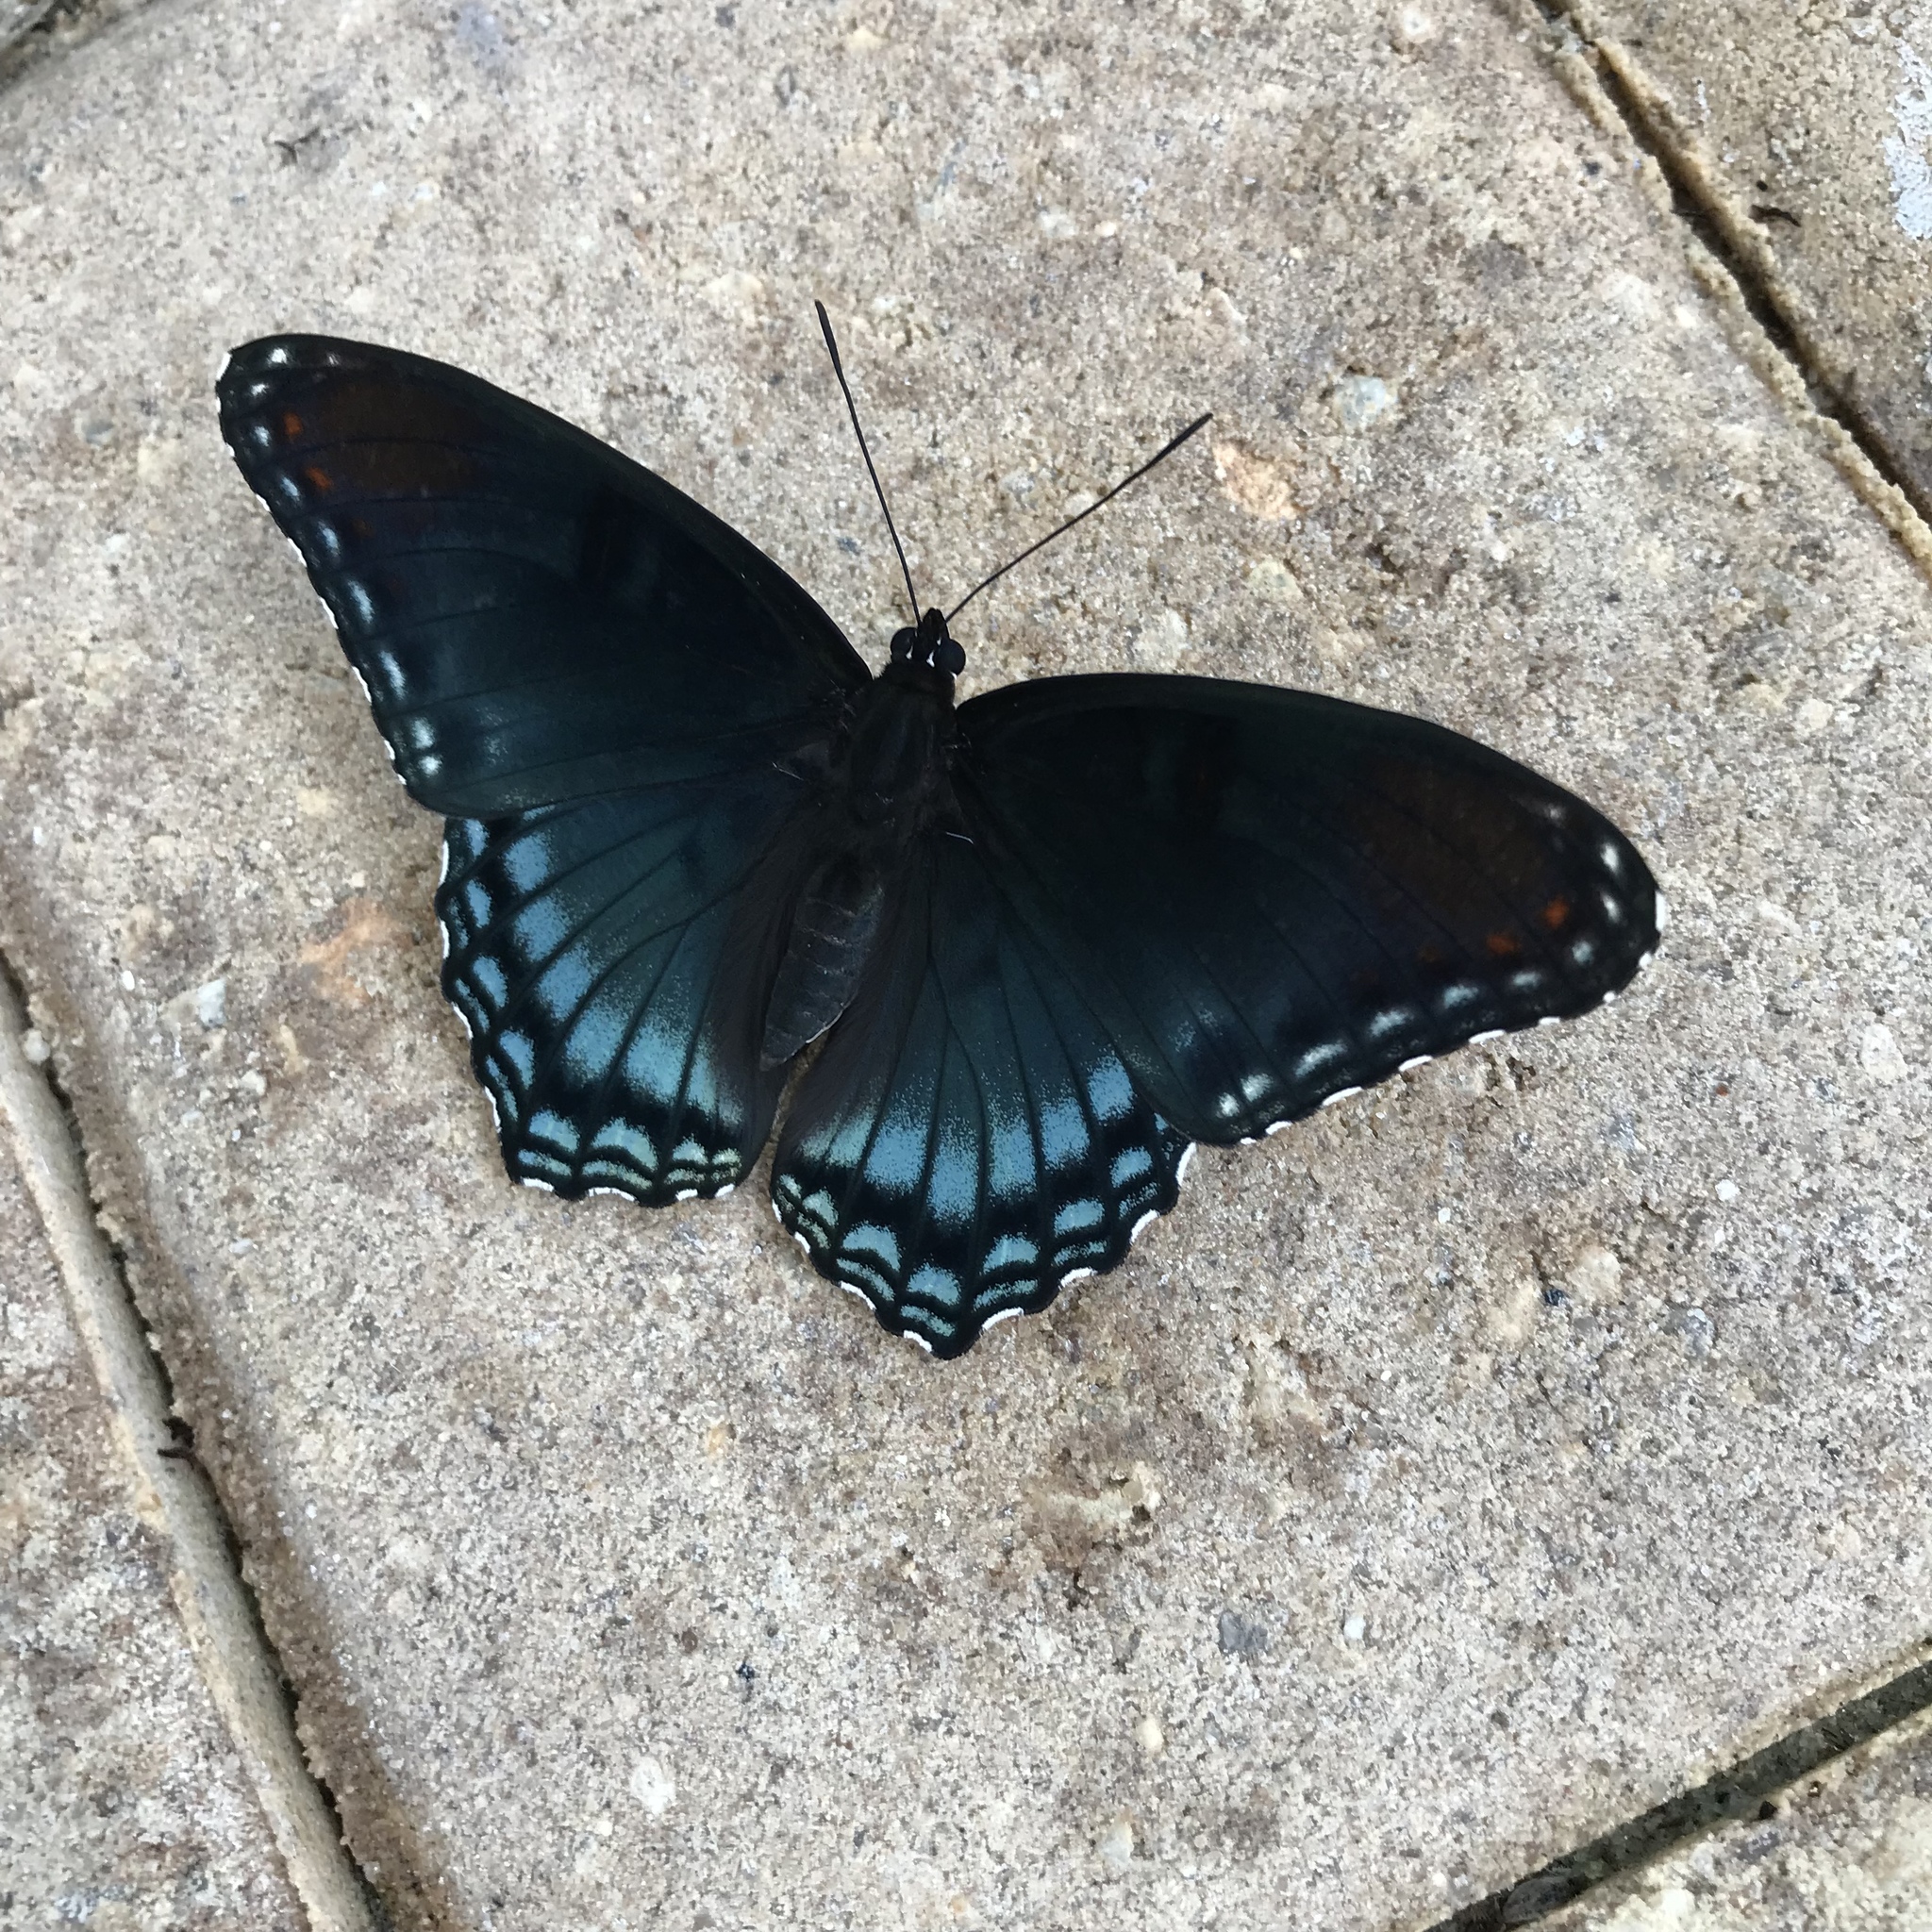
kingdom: Animalia
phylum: Arthropoda
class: Insecta
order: Lepidoptera
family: Nymphalidae
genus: Limenitis
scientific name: Limenitis astyanax
